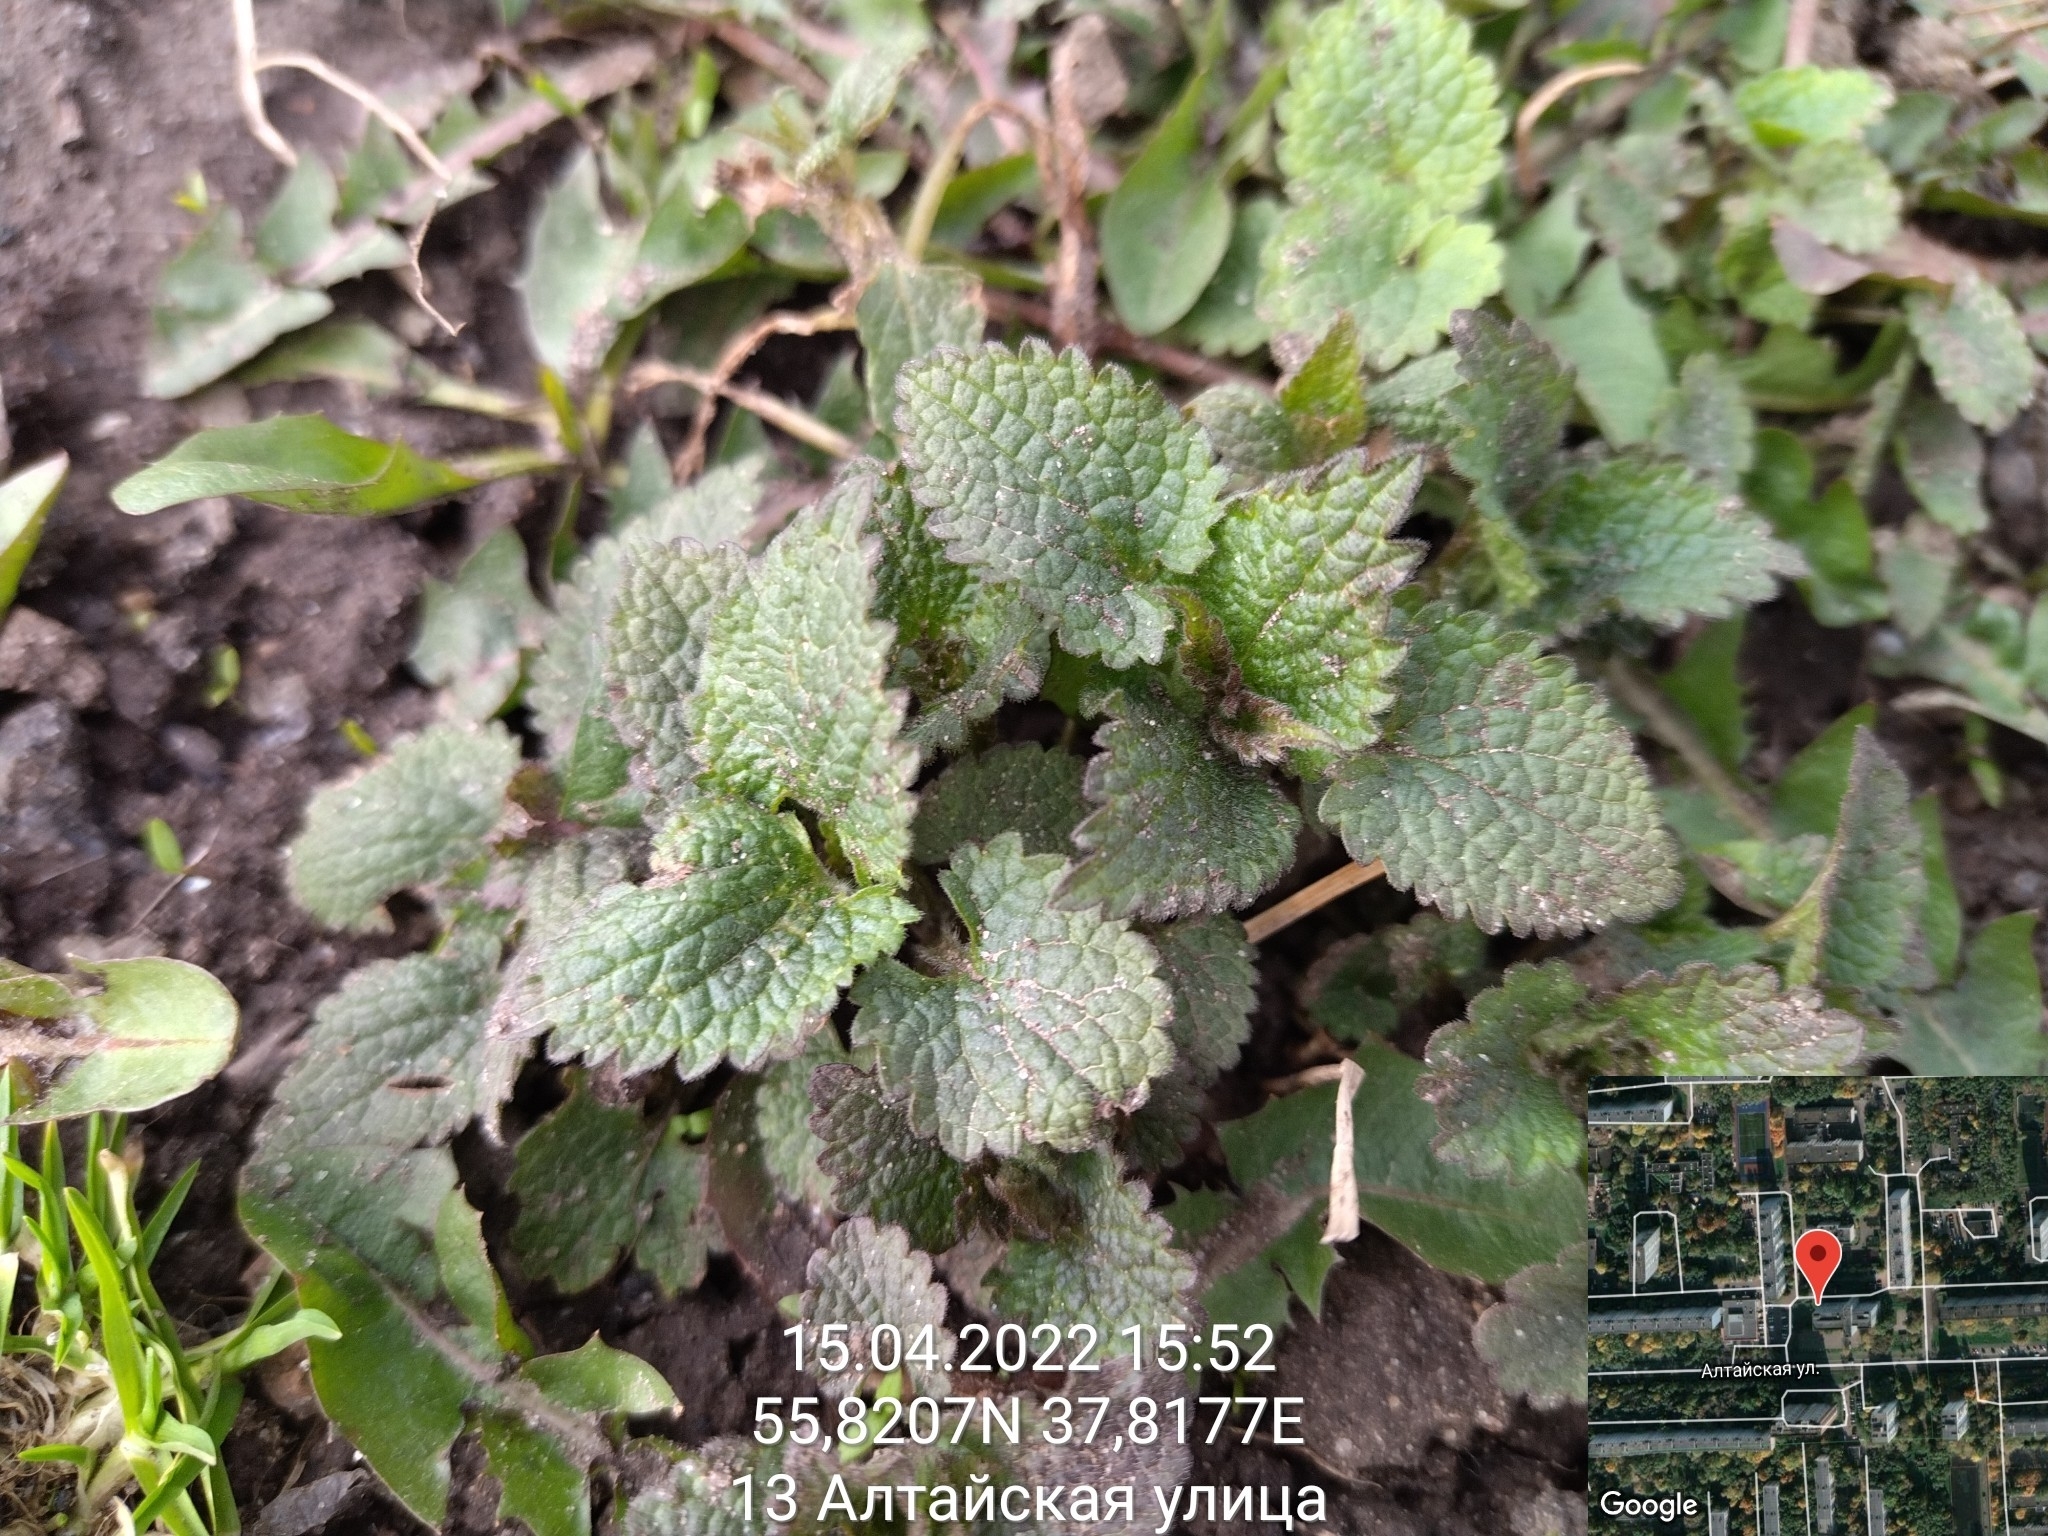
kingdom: Plantae
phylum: Tracheophyta
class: Magnoliopsida
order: Lamiales
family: Lamiaceae
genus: Lamium
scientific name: Lamium album
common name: White dead-nettle
